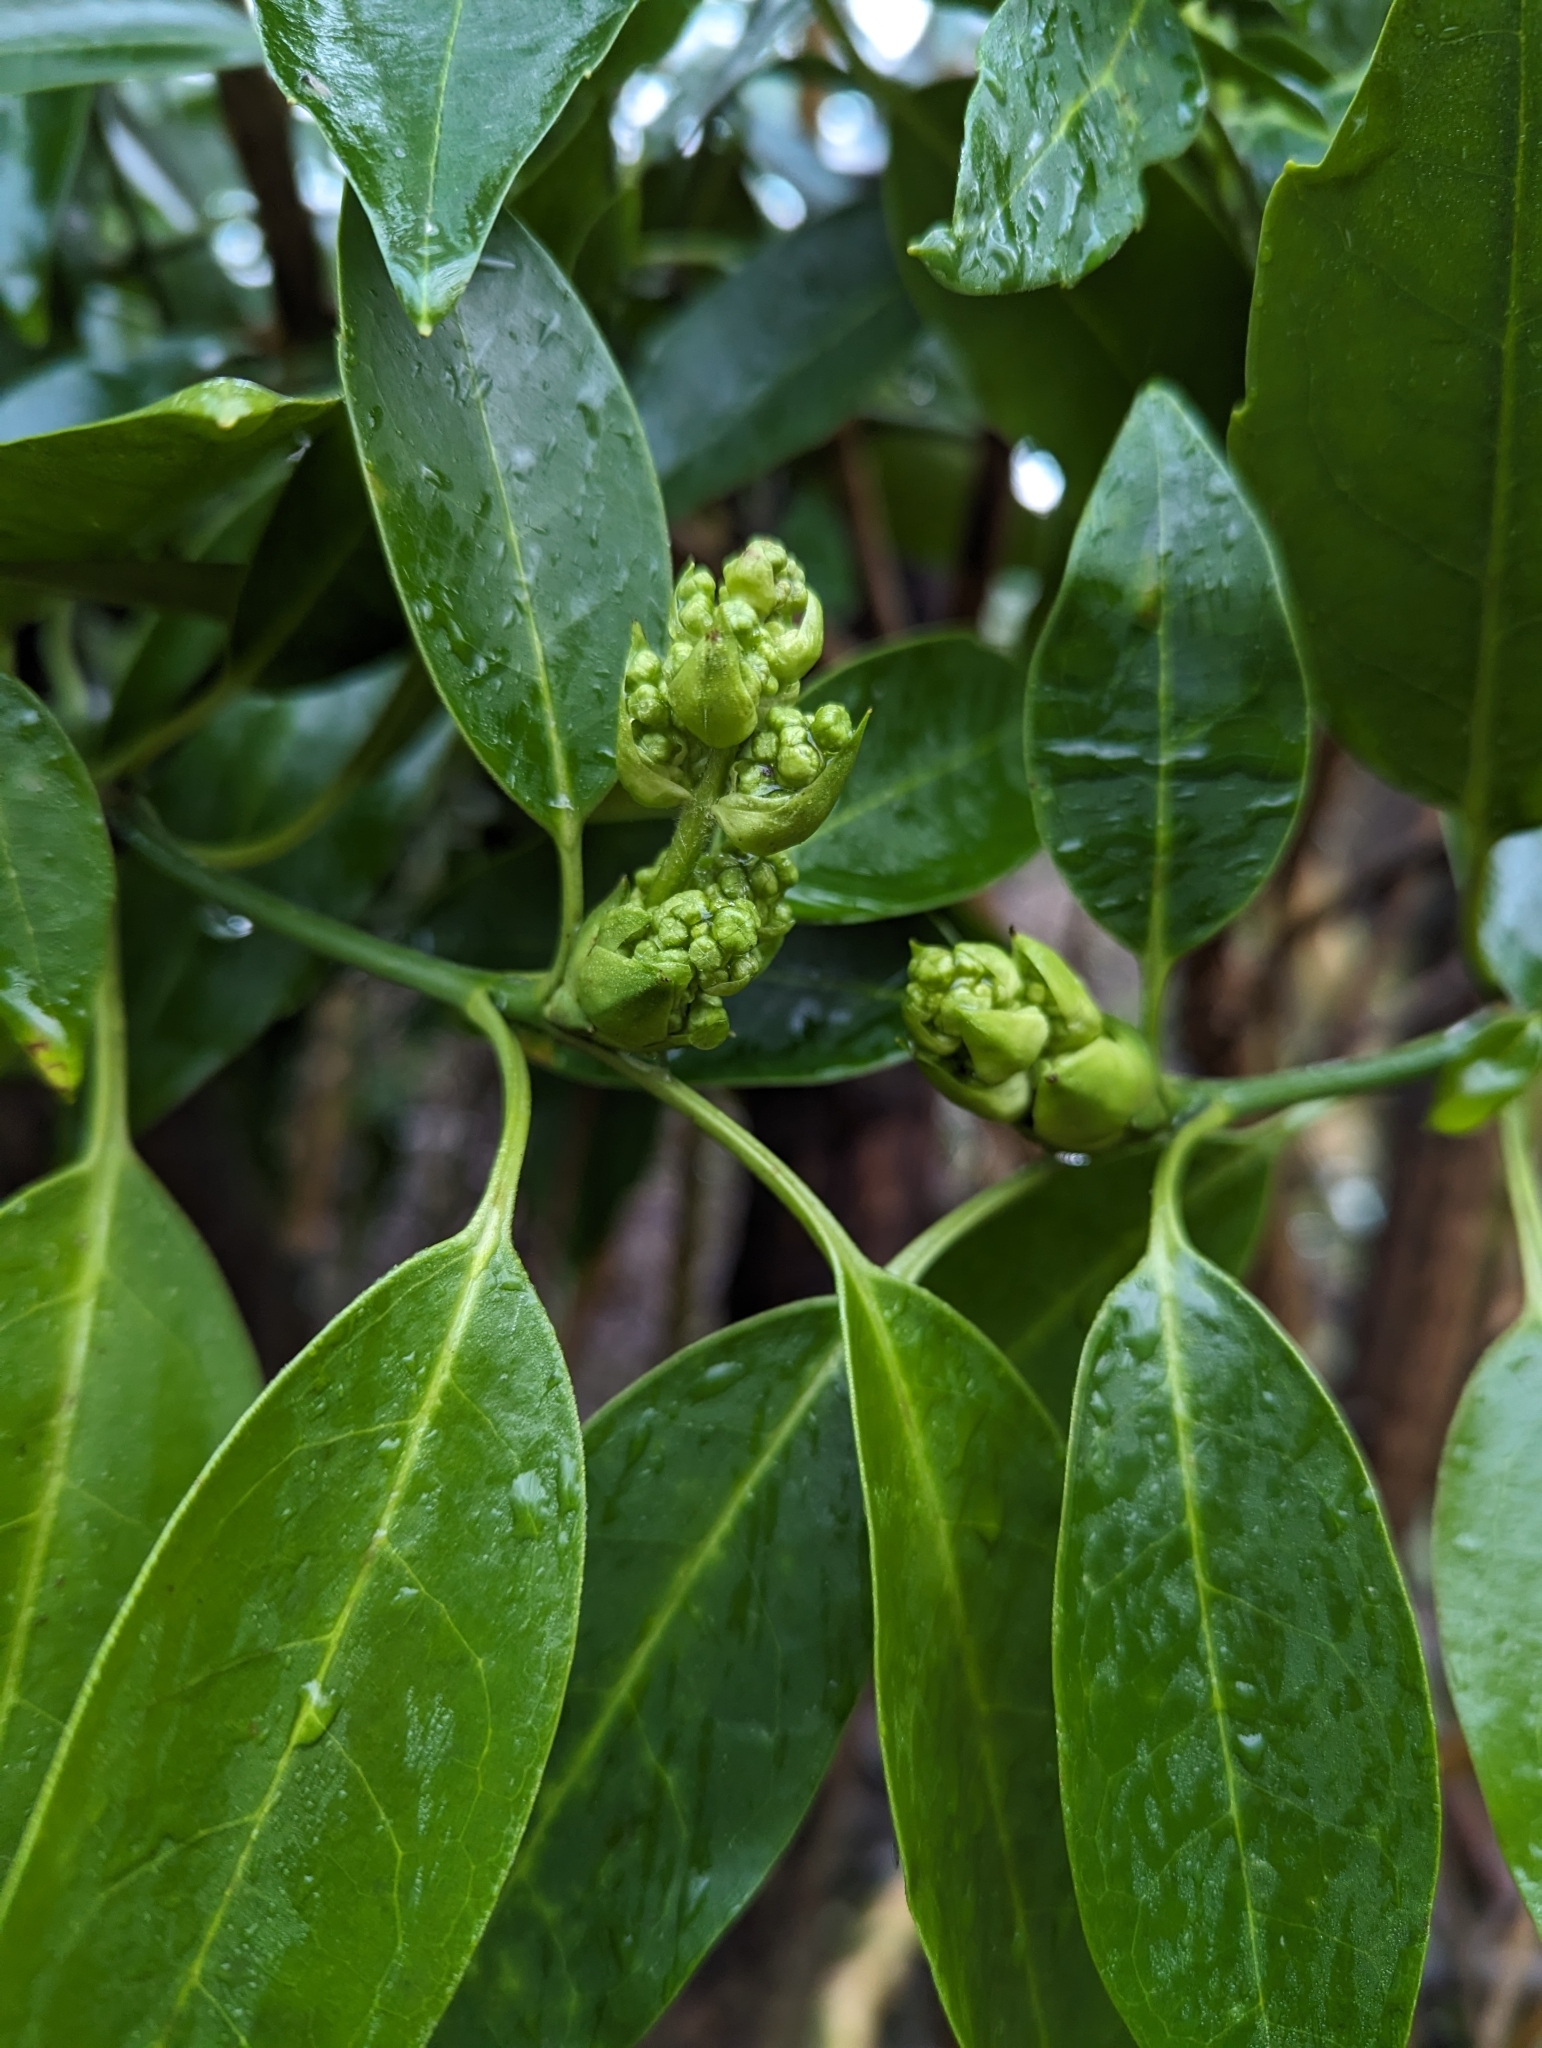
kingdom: Plantae
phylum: Tracheophyta
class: Magnoliopsida
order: Garryales
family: Garryaceae
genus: Aucuba
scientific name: Aucuba japonica
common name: Spotted-laurel
